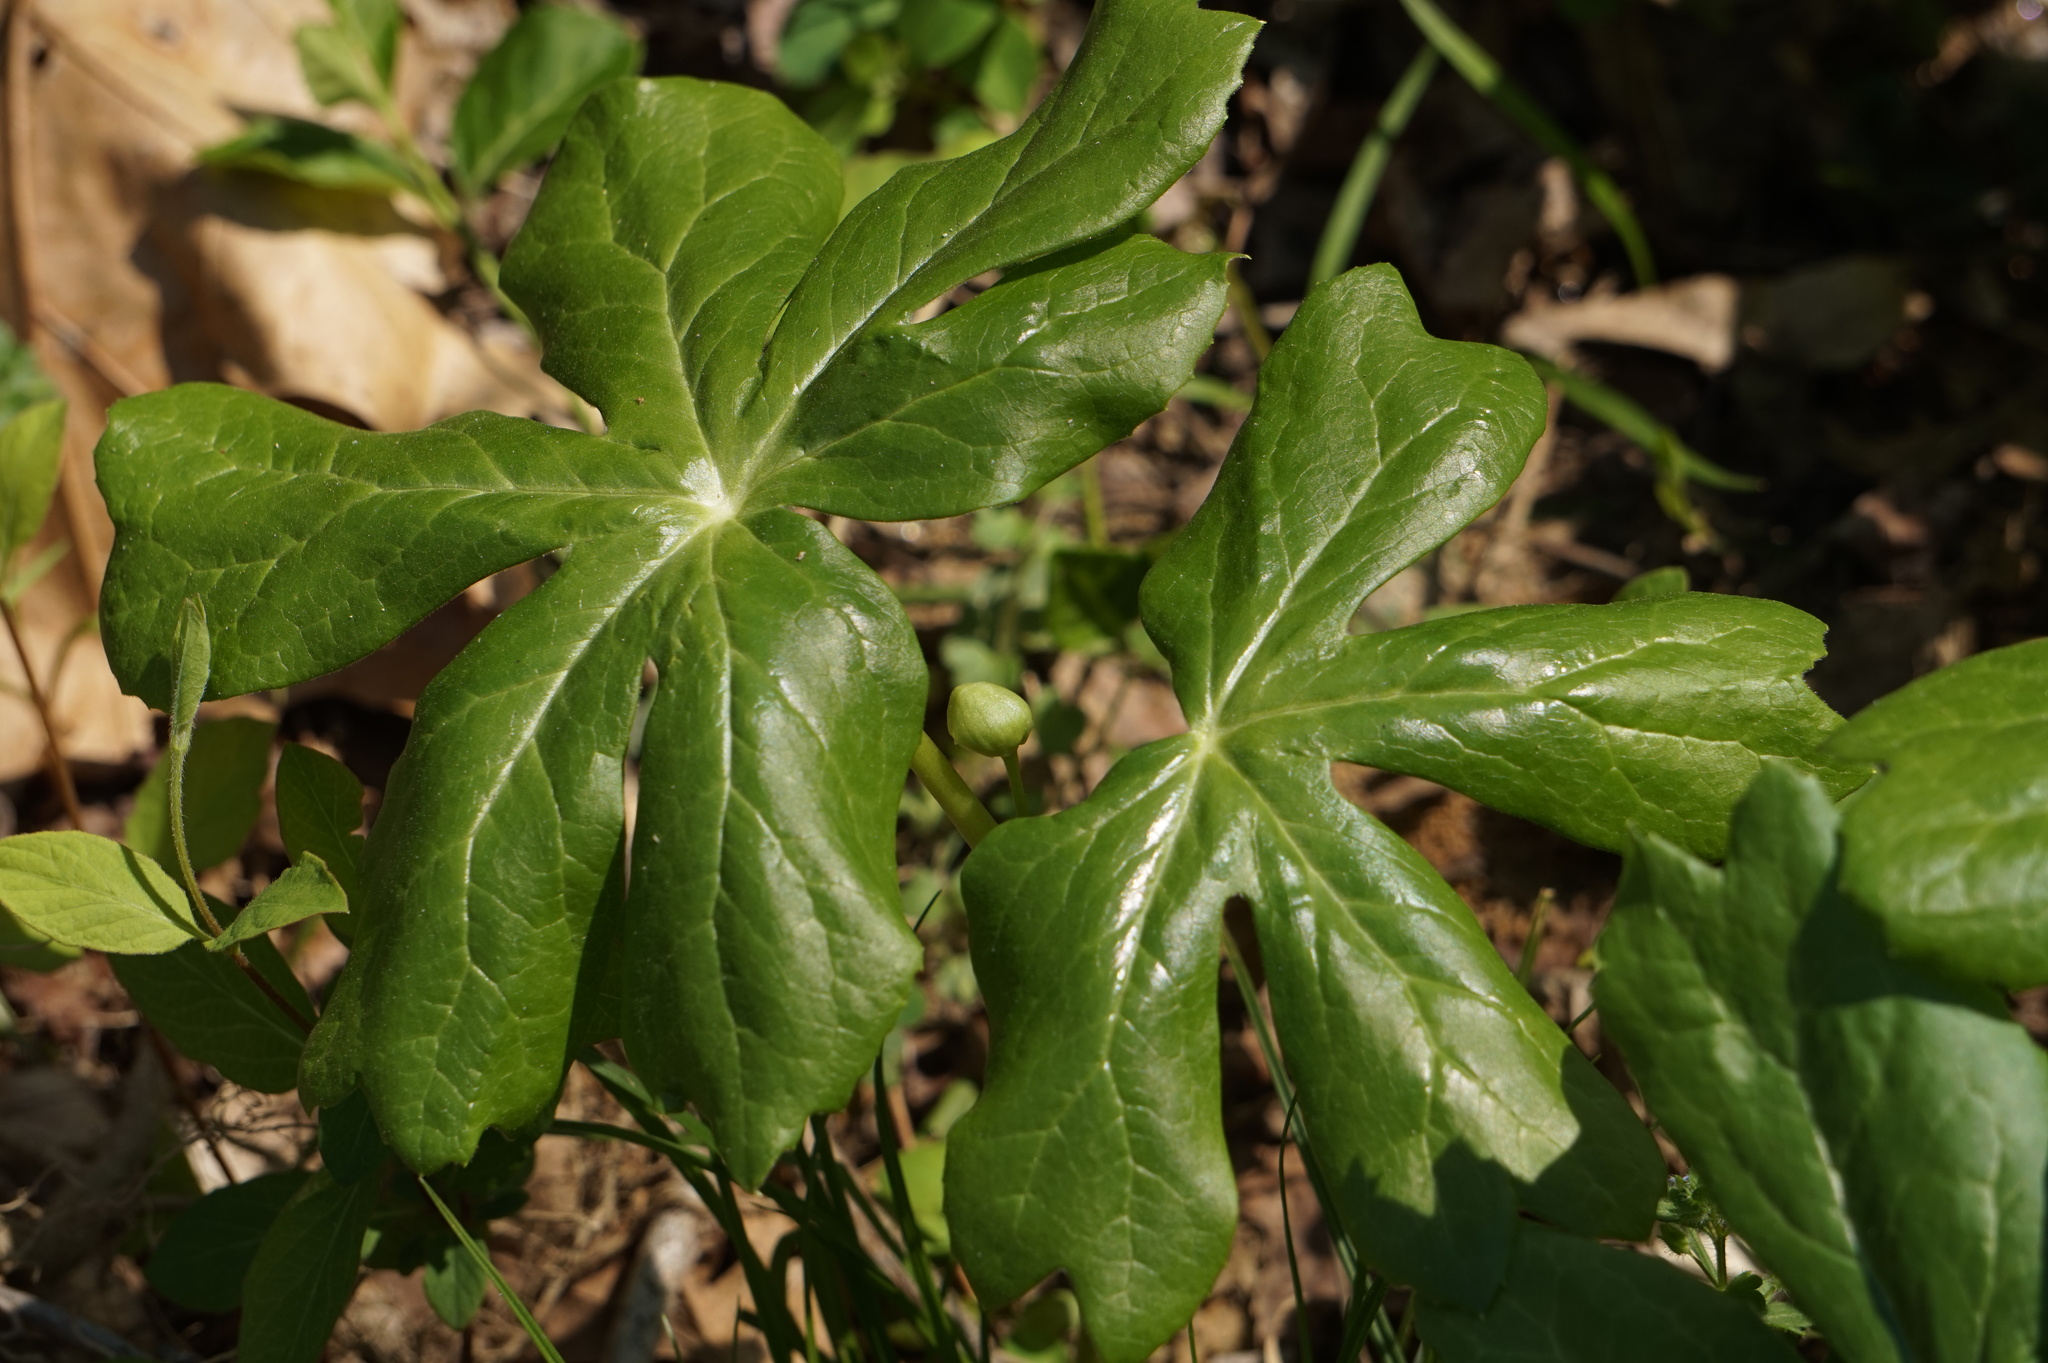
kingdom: Plantae
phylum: Tracheophyta
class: Magnoliopsida
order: Ranunculales
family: Berberidaceae
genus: Podophyllum
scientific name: Podophyllum peltatum
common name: Wild mandrake
